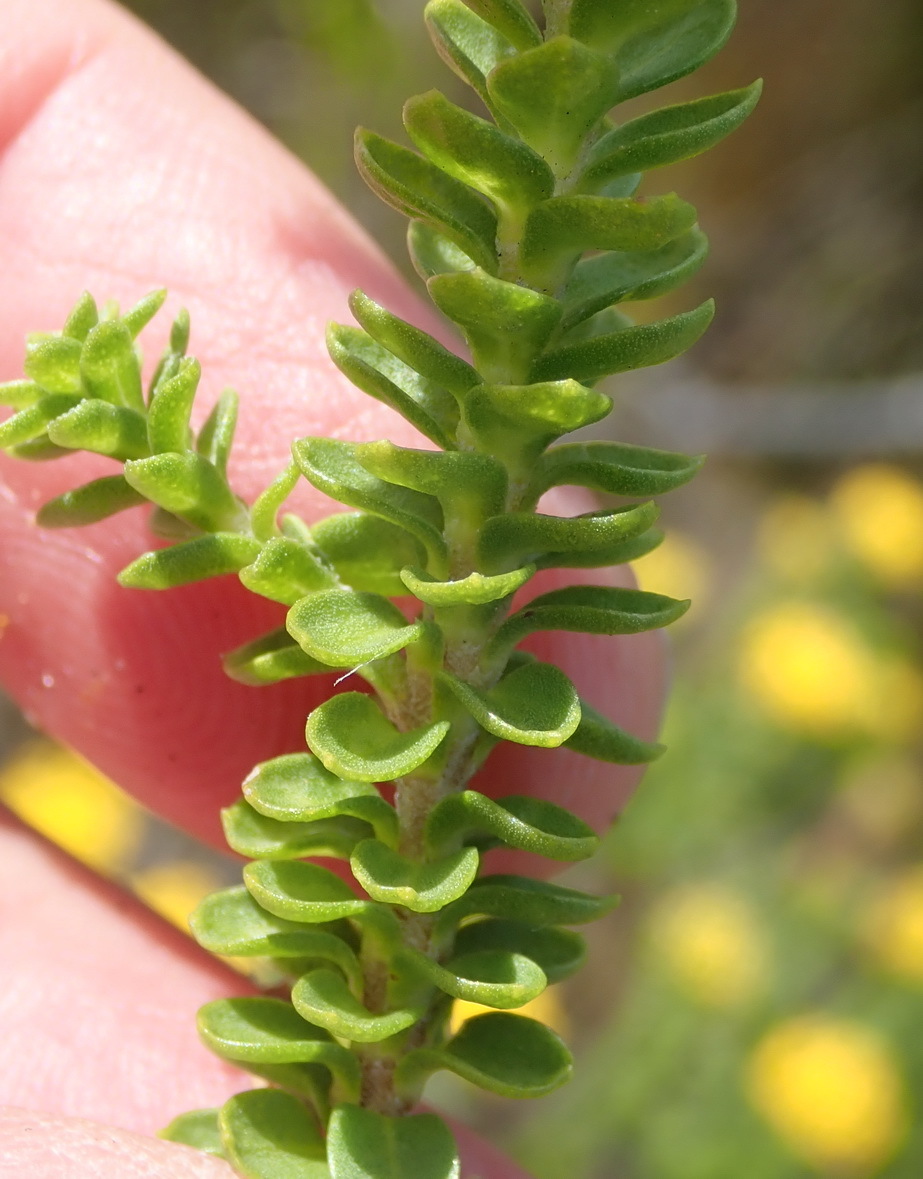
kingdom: Plantae
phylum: Tracheophyta
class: Magnoliopsida
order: Asterales
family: Asteraceae
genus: Athanasia
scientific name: Athanasia quinquedentata
